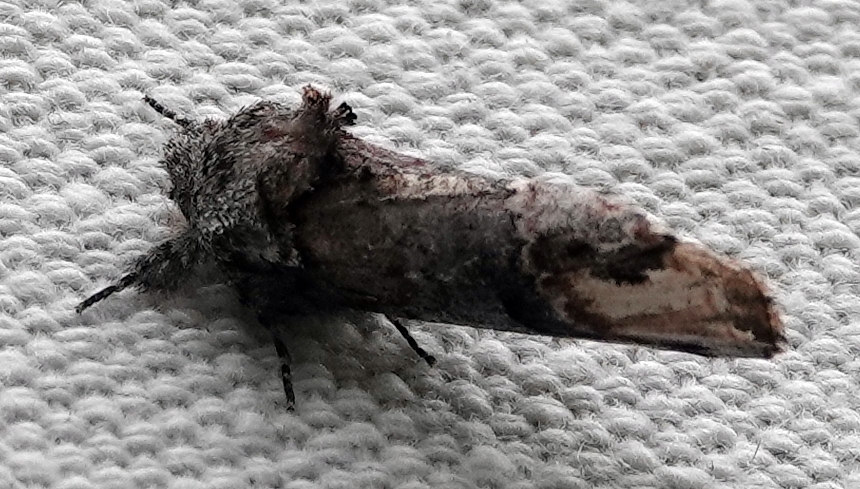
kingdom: Animalia
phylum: Arthropoda
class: Insecta
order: Lepidoptera
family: Notodontidae
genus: Schizura
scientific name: Schizura
